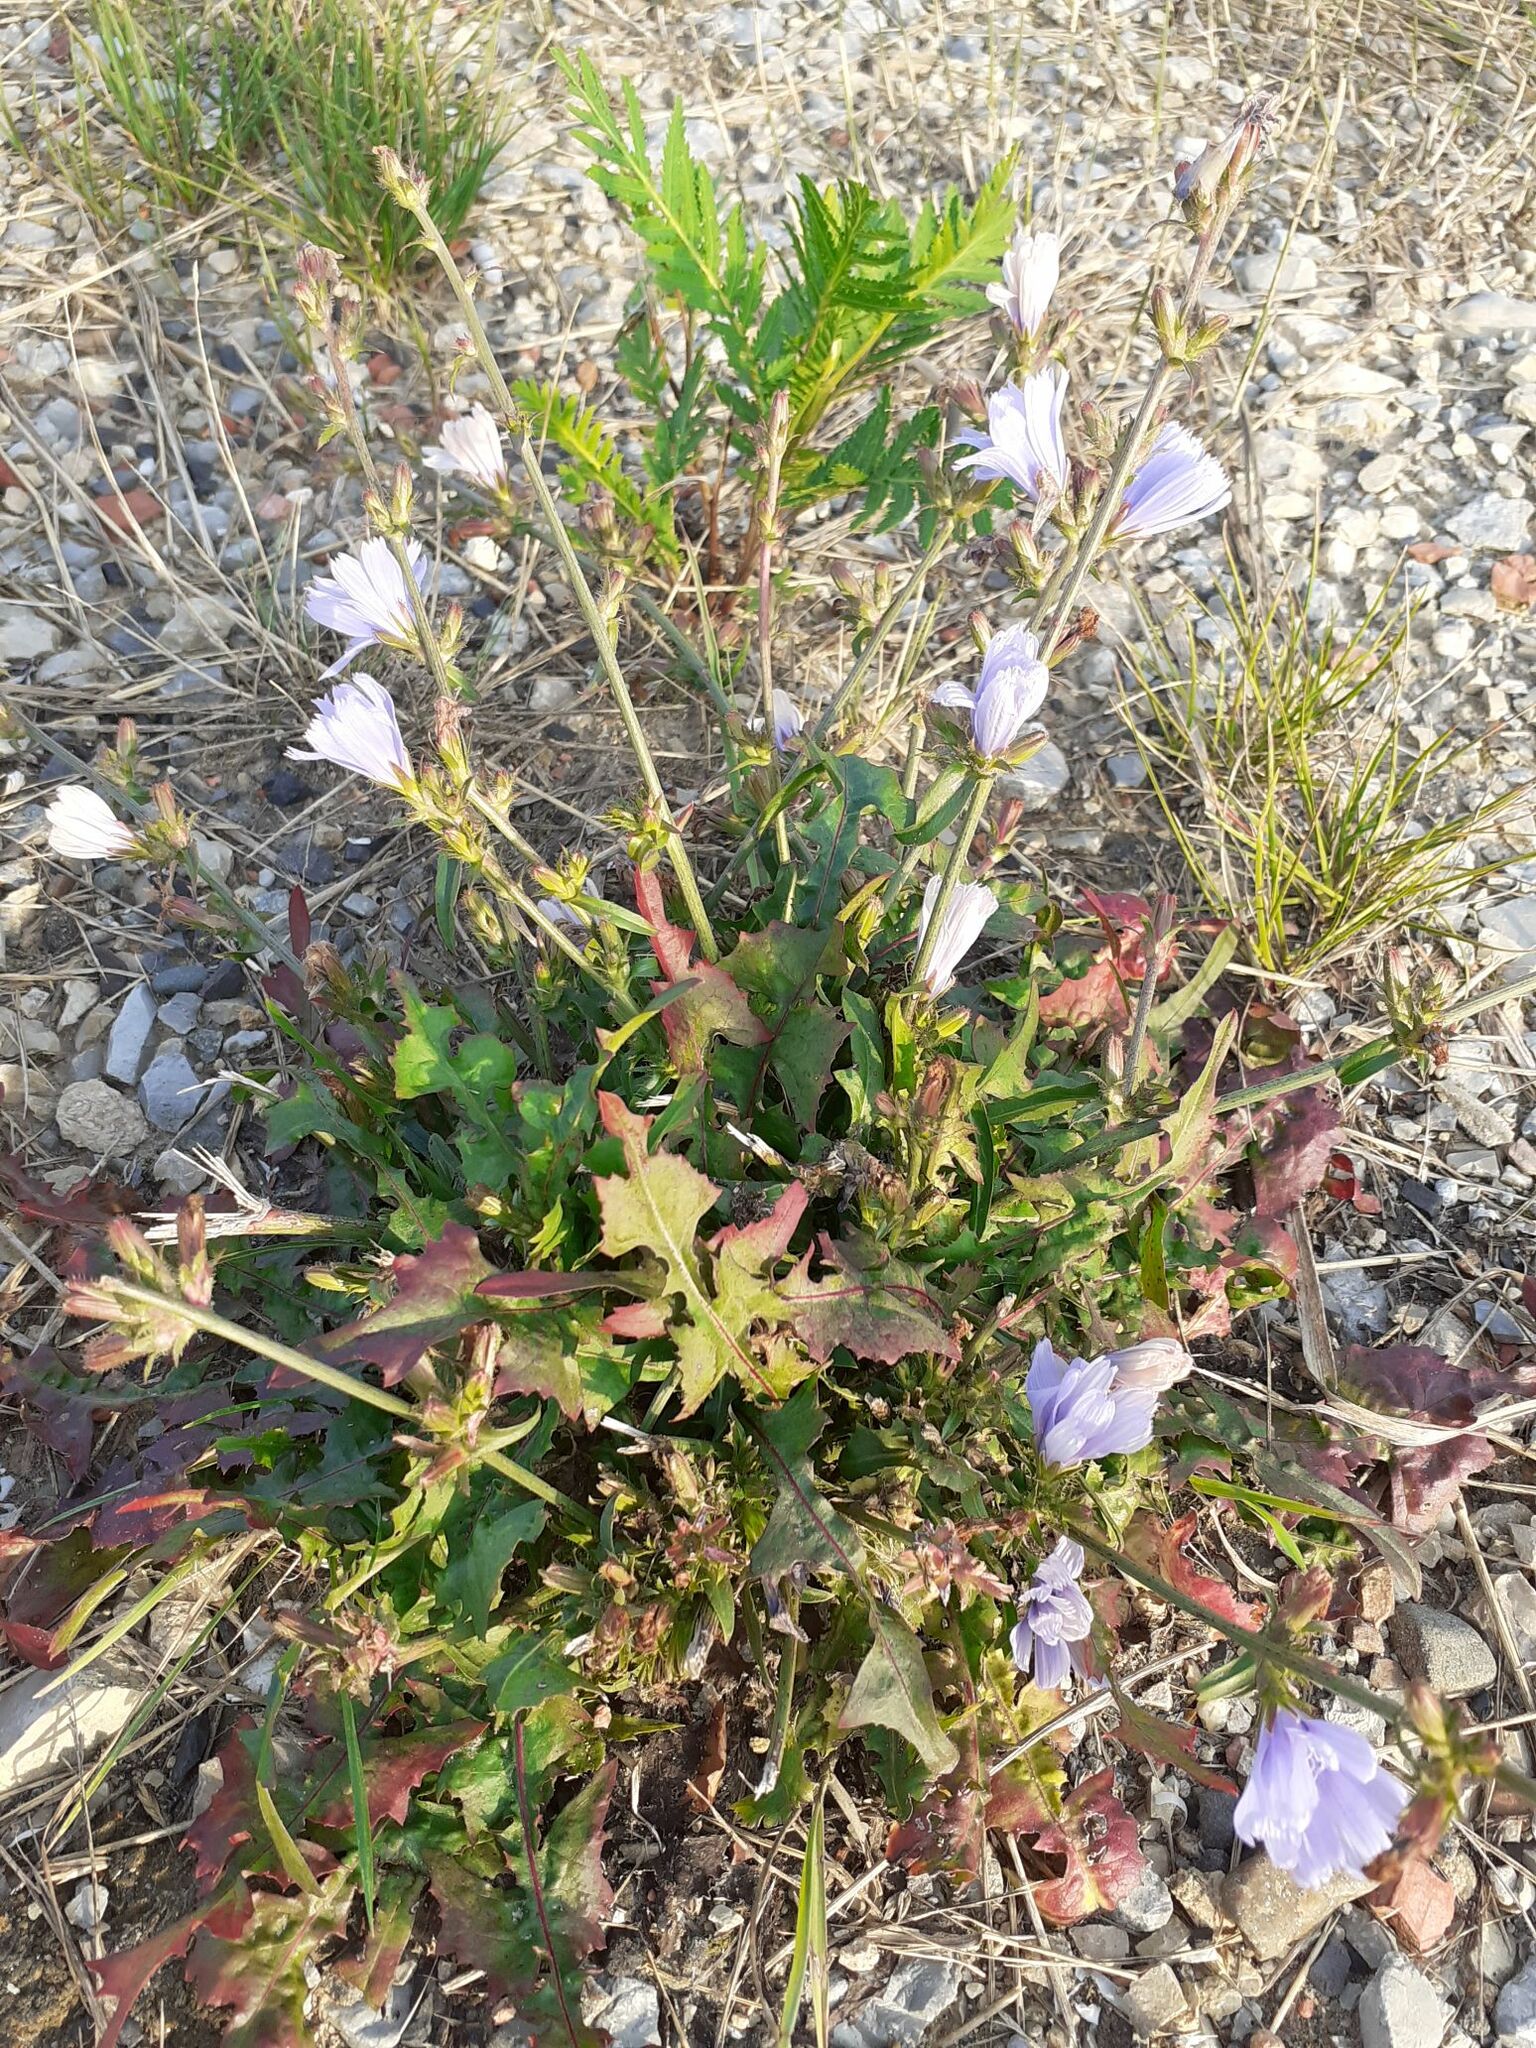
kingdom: Plantae
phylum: Tracheophyta
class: Magnoliopsida
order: Asterales
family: Asteraceae
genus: Cichorium
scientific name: Cichorium intybus
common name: Chicory
